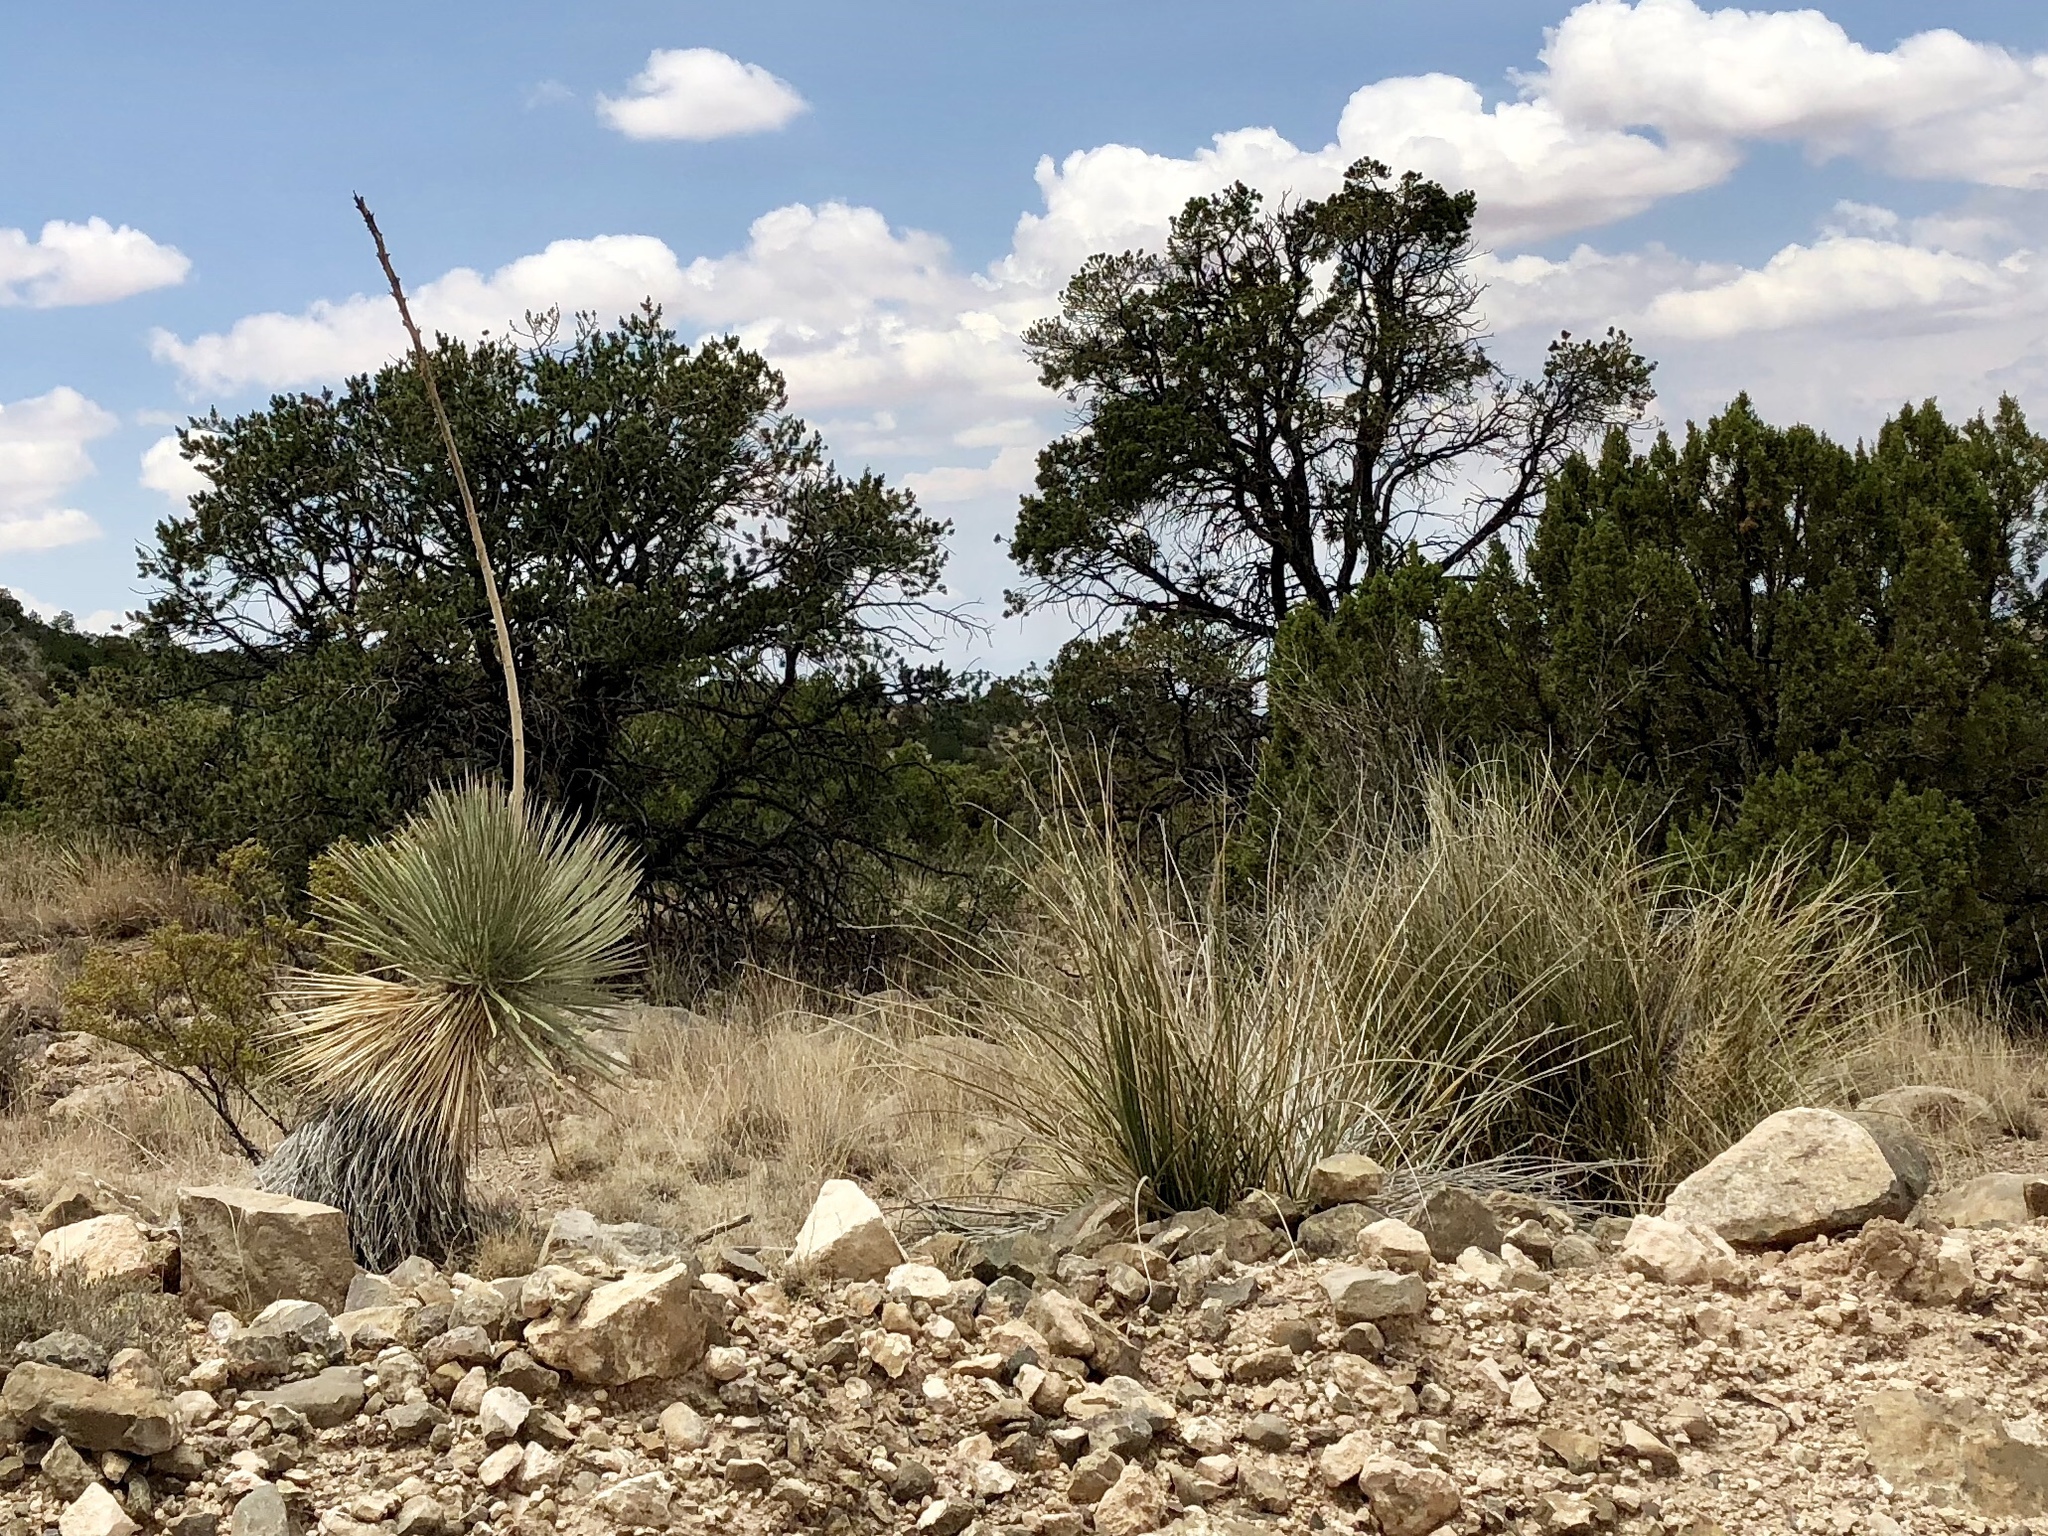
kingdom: Plantae
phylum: Tracheophyta
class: Liliopsida
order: Asparagales
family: Asparagaceae
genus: Yucca
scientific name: Yucca elata
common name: Palmella
